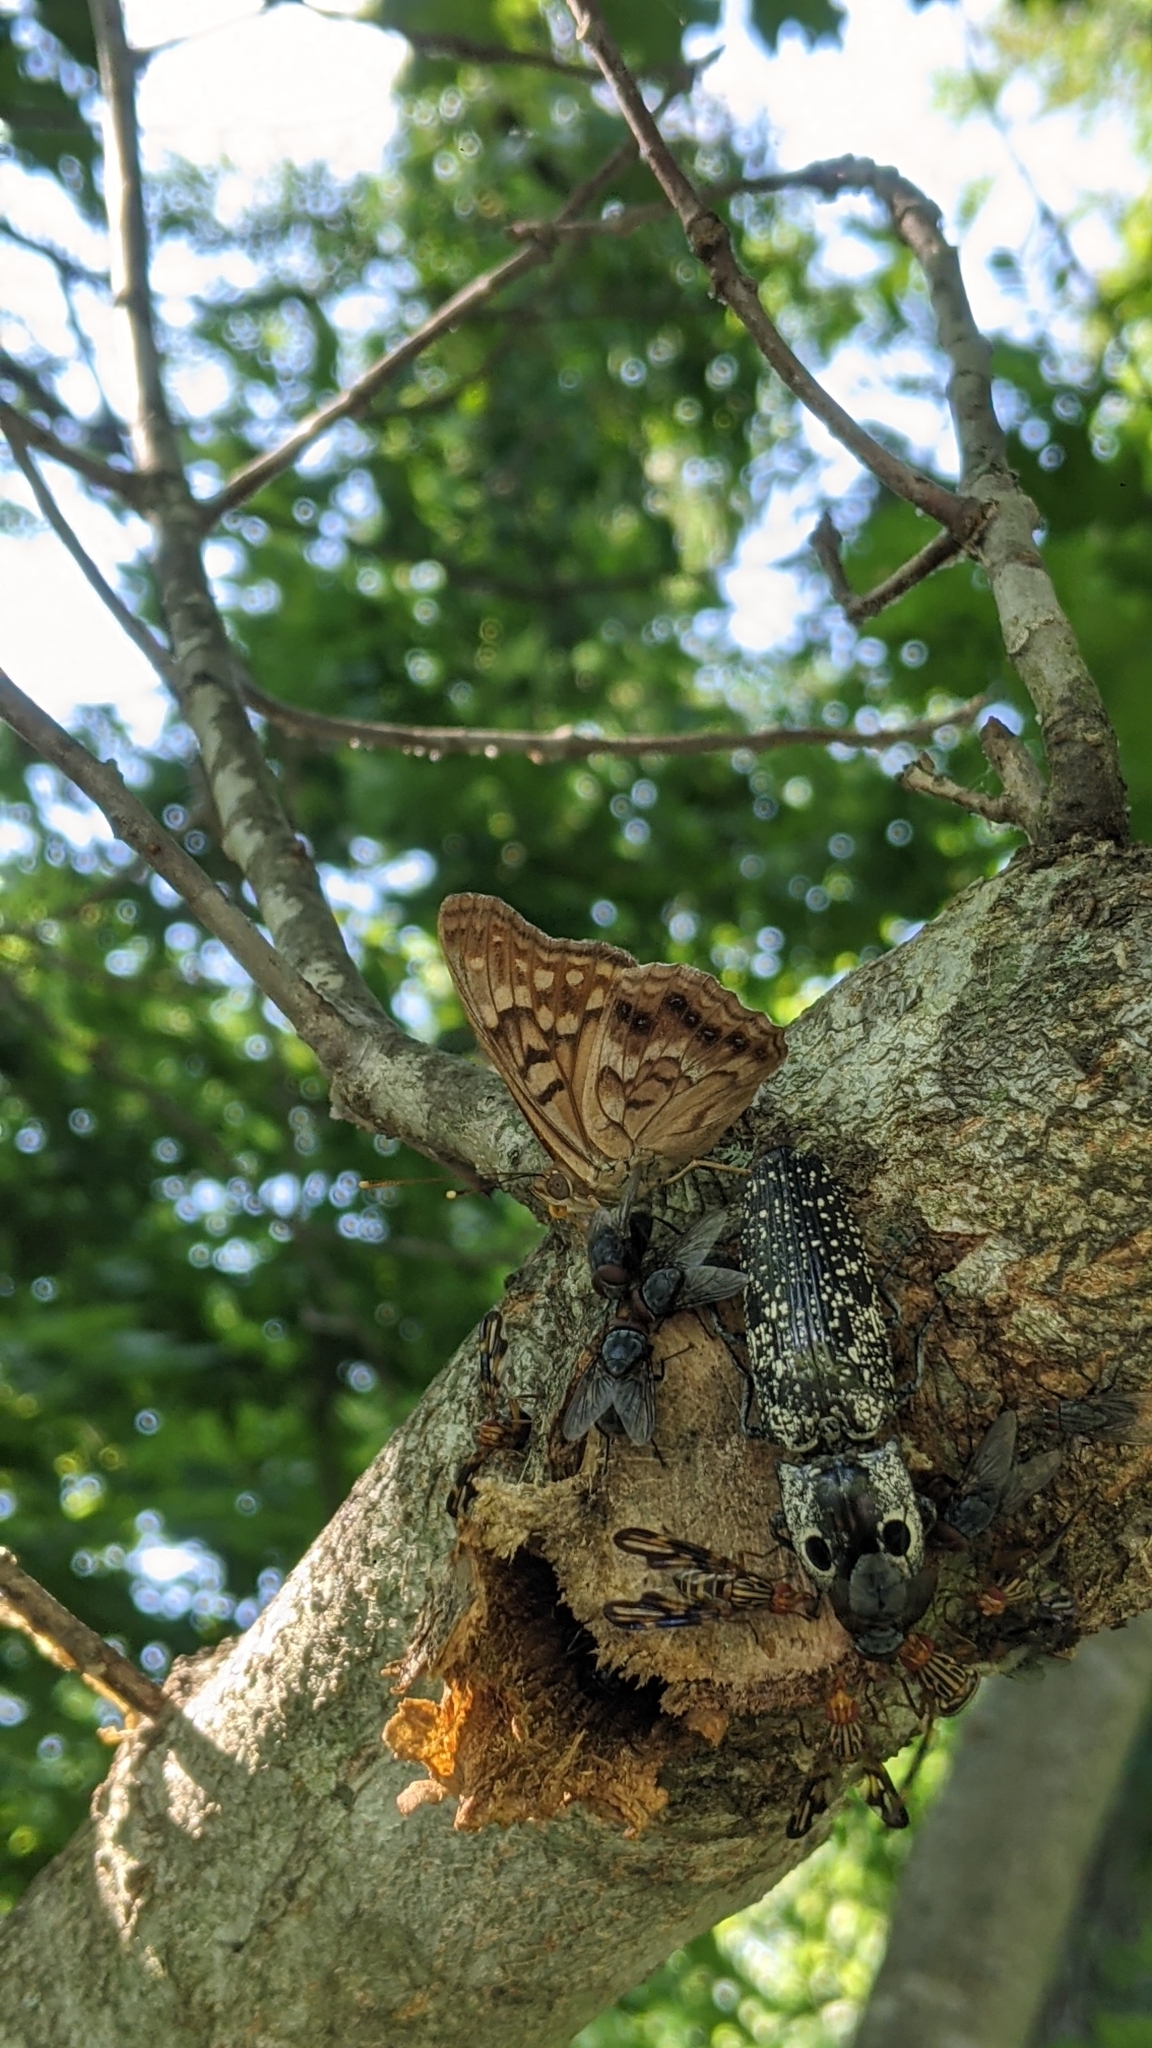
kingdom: Animalia
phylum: Arthropoda
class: Insecta
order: Lepidoptera
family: Nymphalidae
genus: Asterocampa
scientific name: Asterocampa clyton
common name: Tawny emperor
